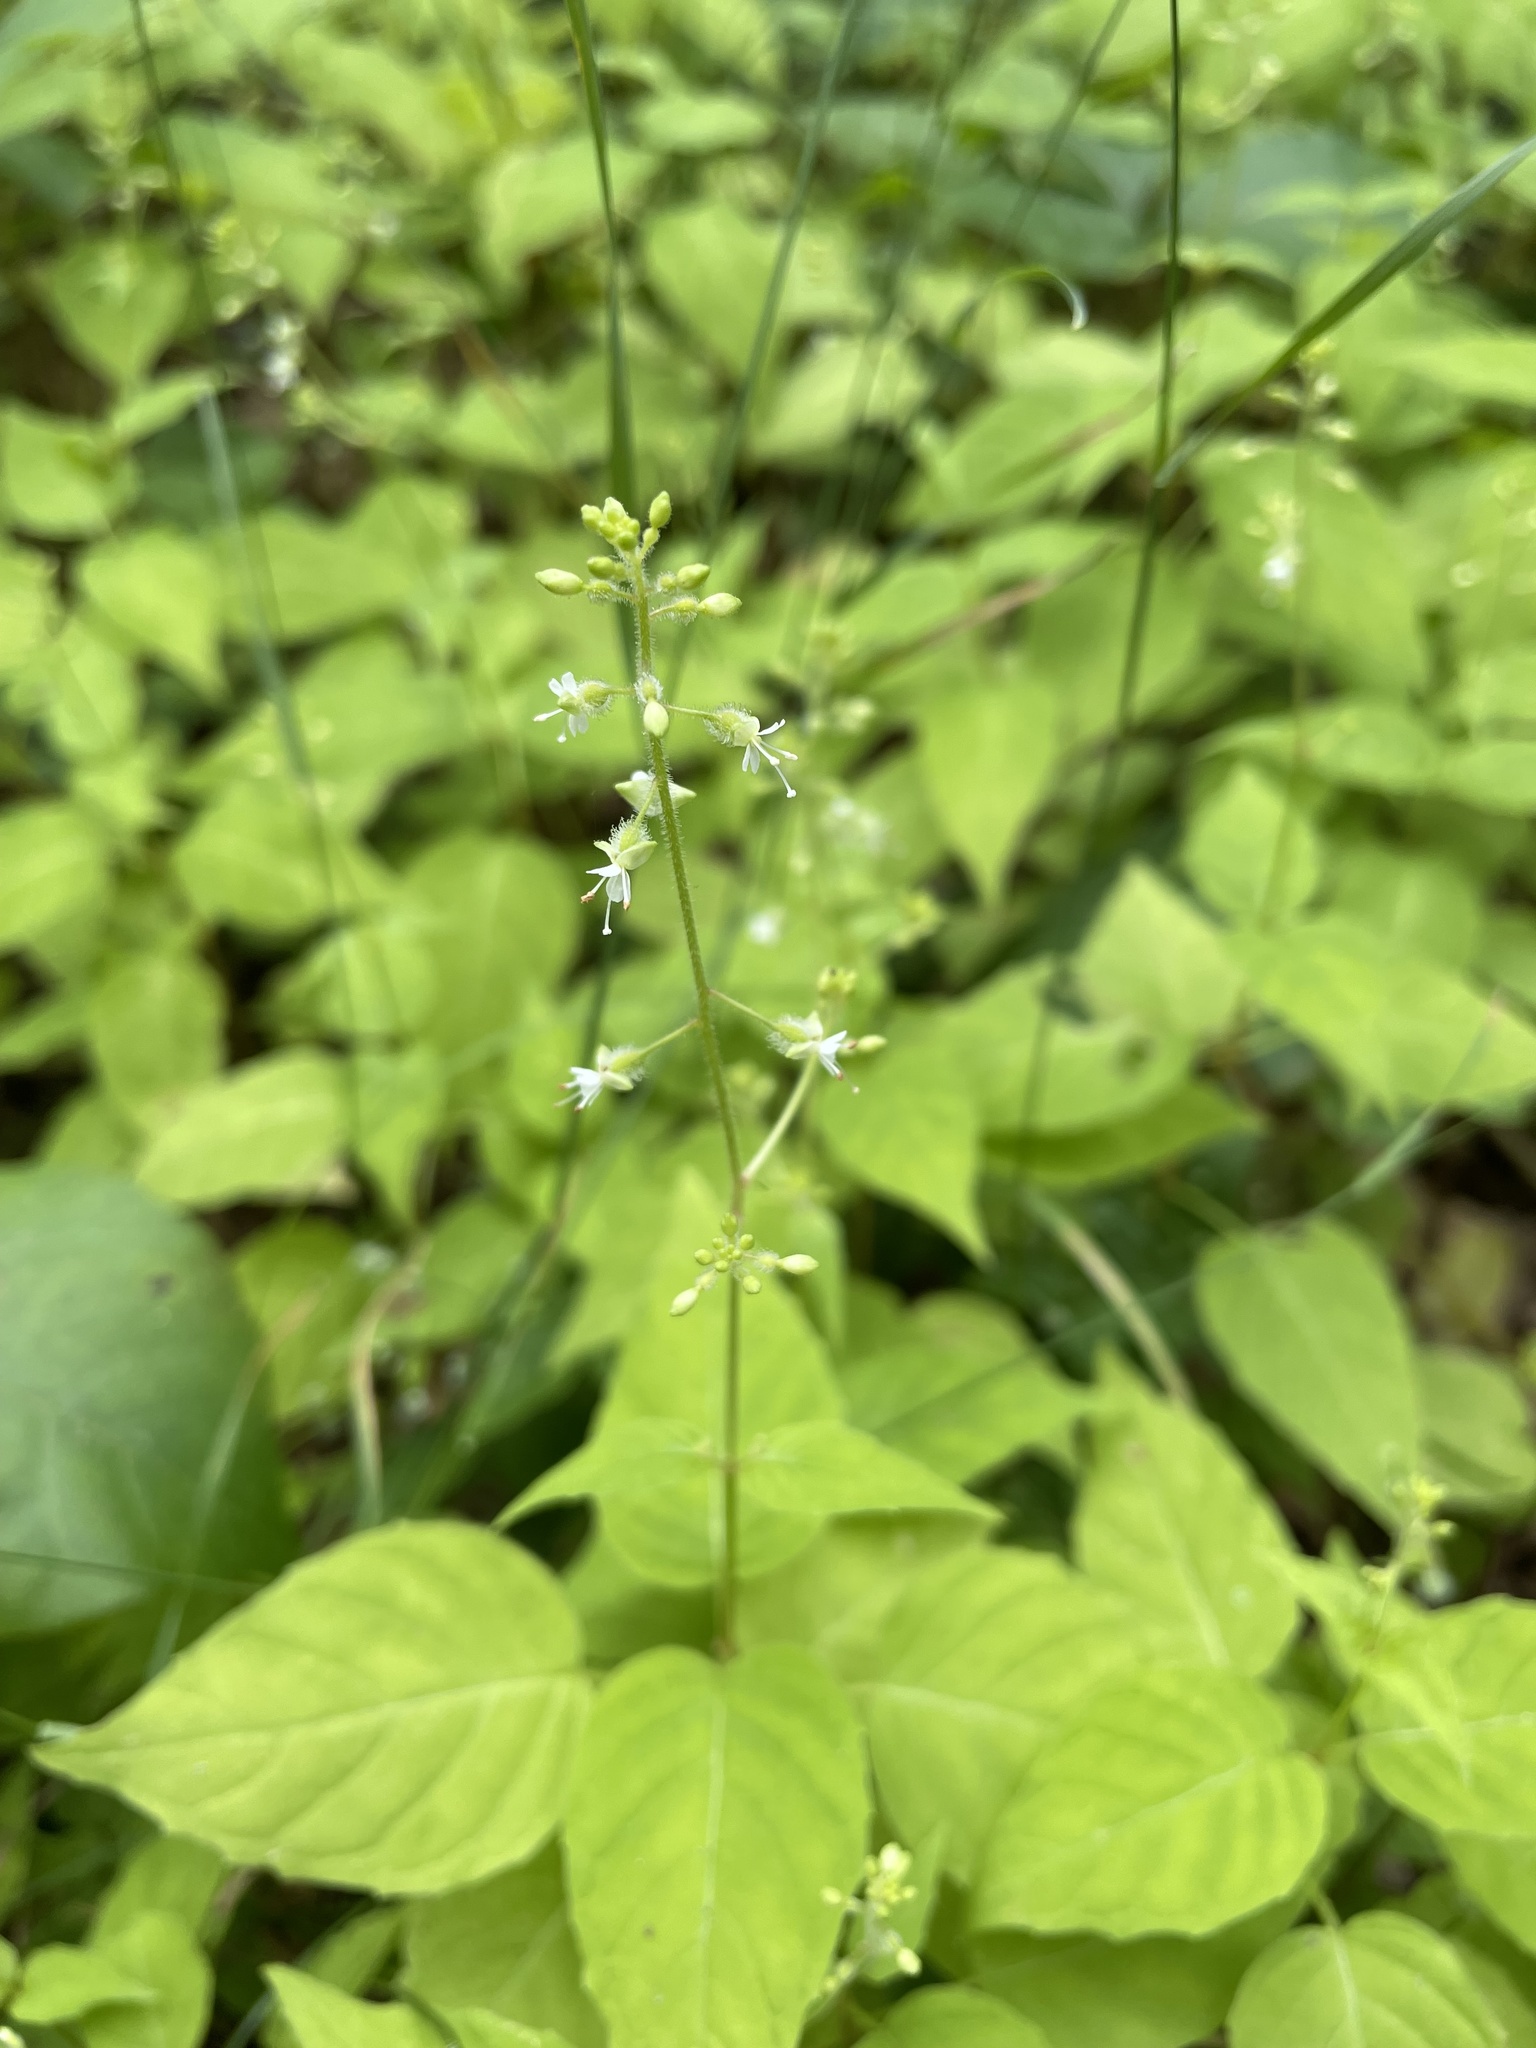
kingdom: Plantae
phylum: Tracheophyta
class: Magnoliopsida
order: Myrtales
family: Onagraceae
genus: Circaea
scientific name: Circaea canadensis
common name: Broad-leaved enchanter's nightshade
